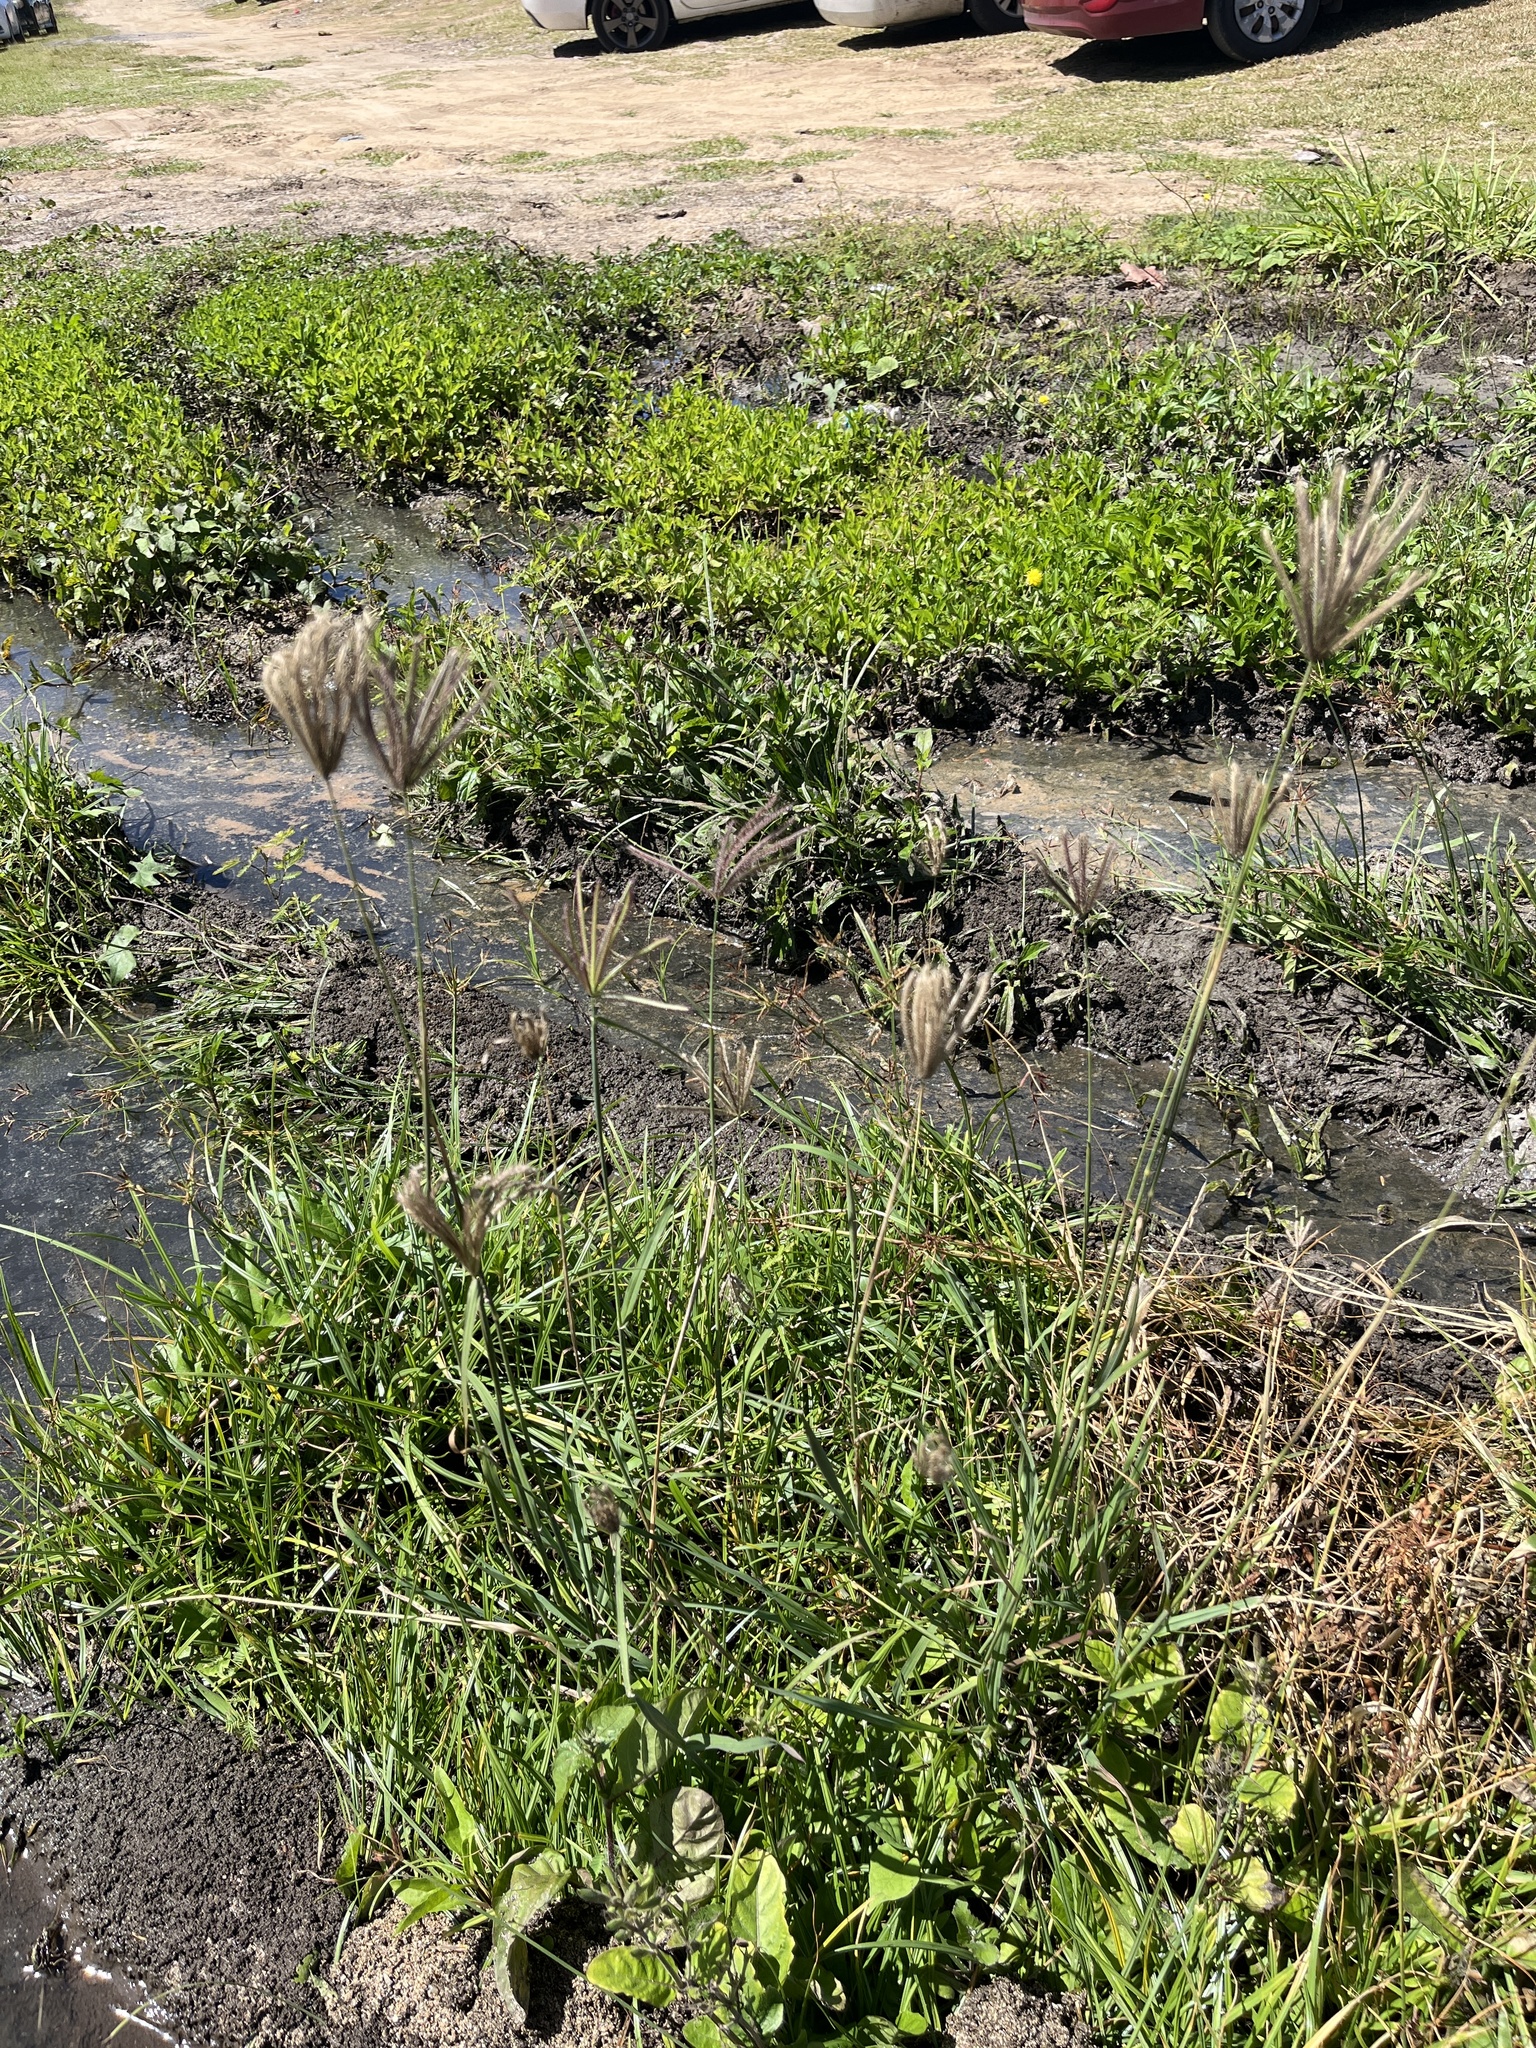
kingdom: Plantae
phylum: Tracheophyta
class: Liliopsida
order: Poales
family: Poaceae
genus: Chloris
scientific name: Chloris barbata
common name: Swollen fingergrass
